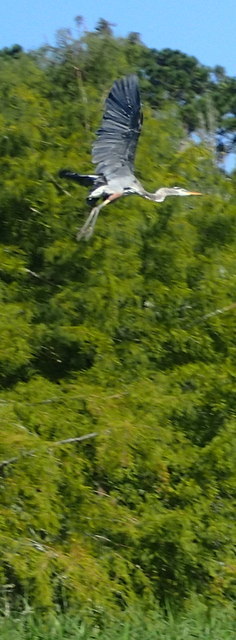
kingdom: Animalia
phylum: Chordata
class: Aves
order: Pelecaniformes
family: Ardeidae
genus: Ardea
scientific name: Ardea herodias
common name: Great blue heron
